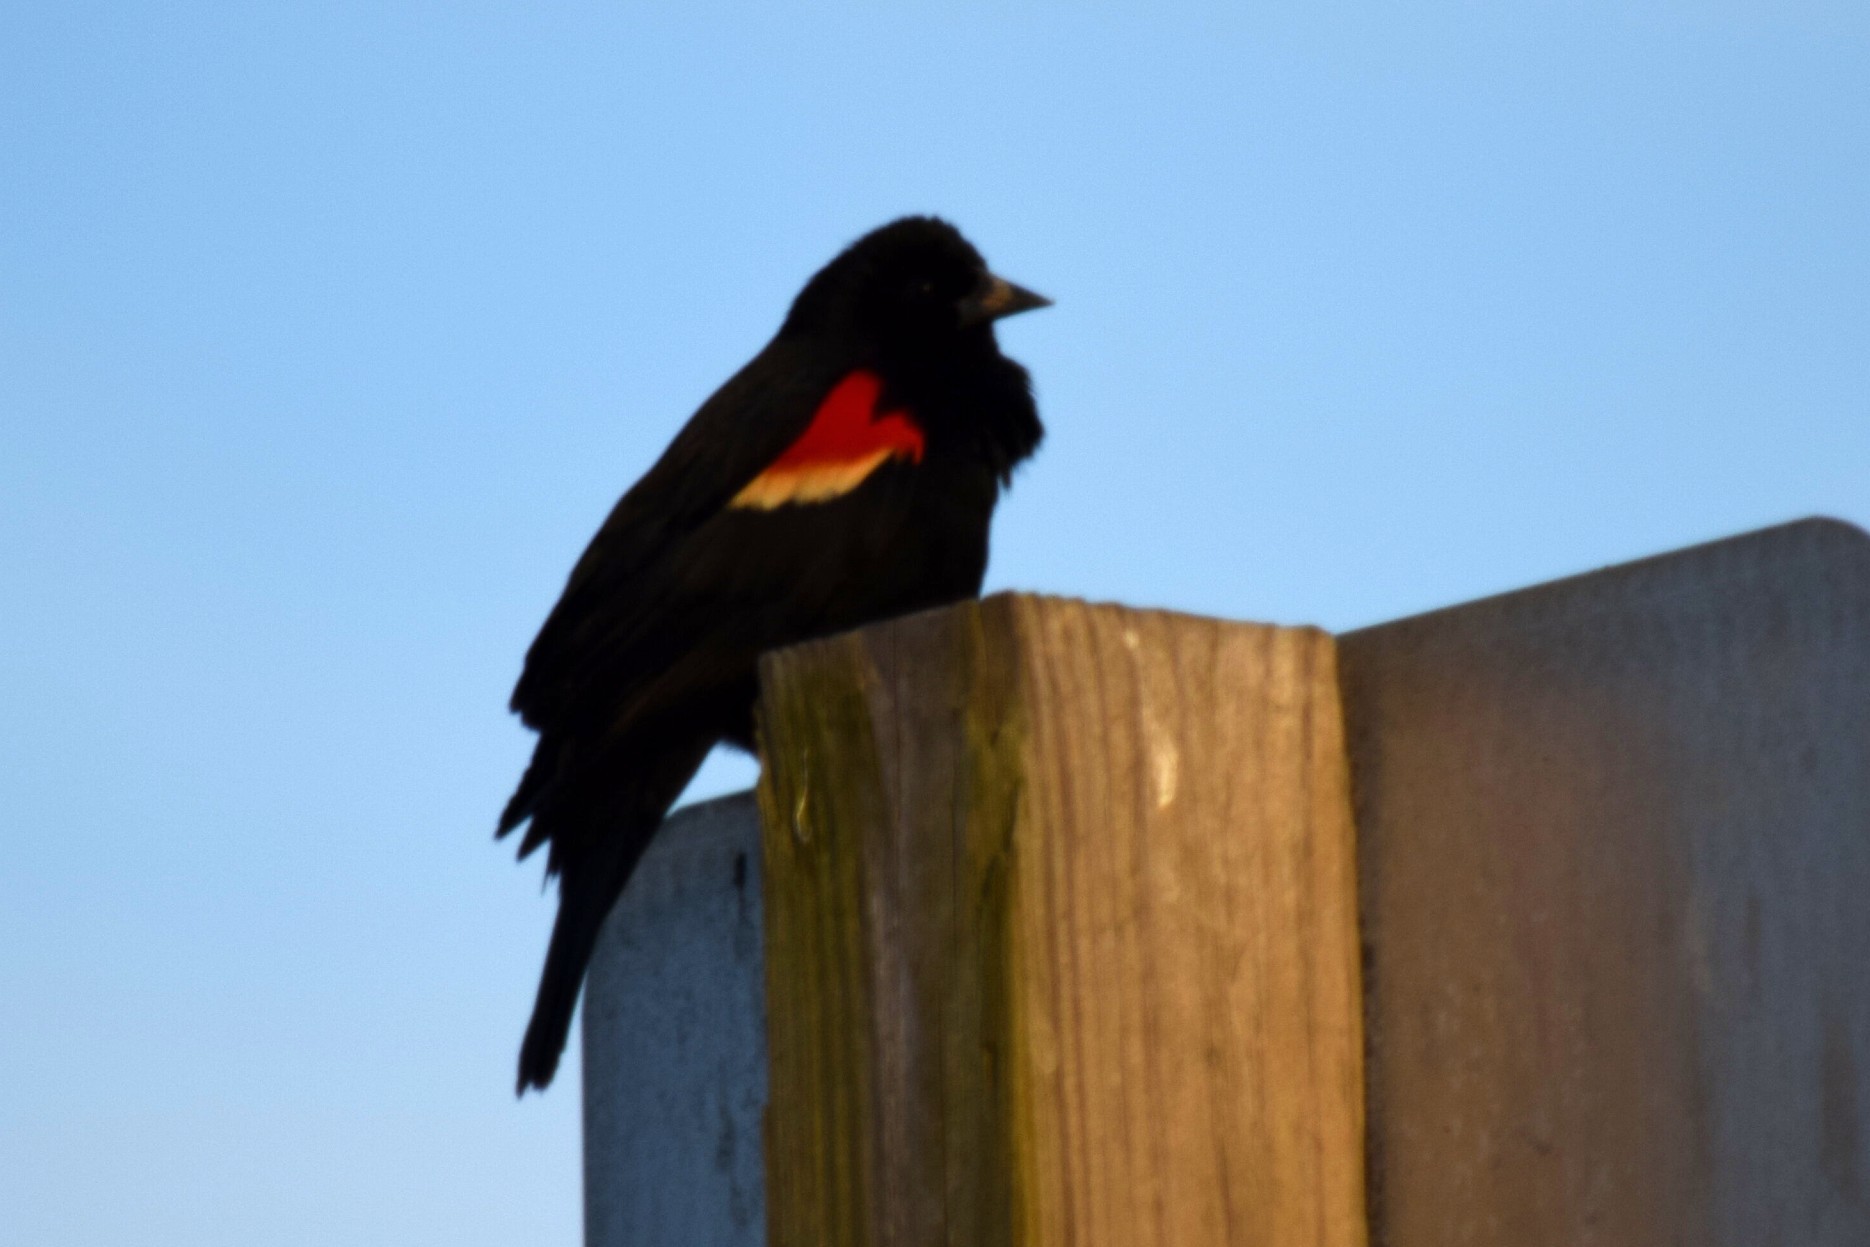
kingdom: Animalia
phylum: Chordata
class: Aves
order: Passeriformes
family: Icteridae
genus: Agelaius
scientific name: Agelaius phoeniceus
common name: Red-winged blackbird
